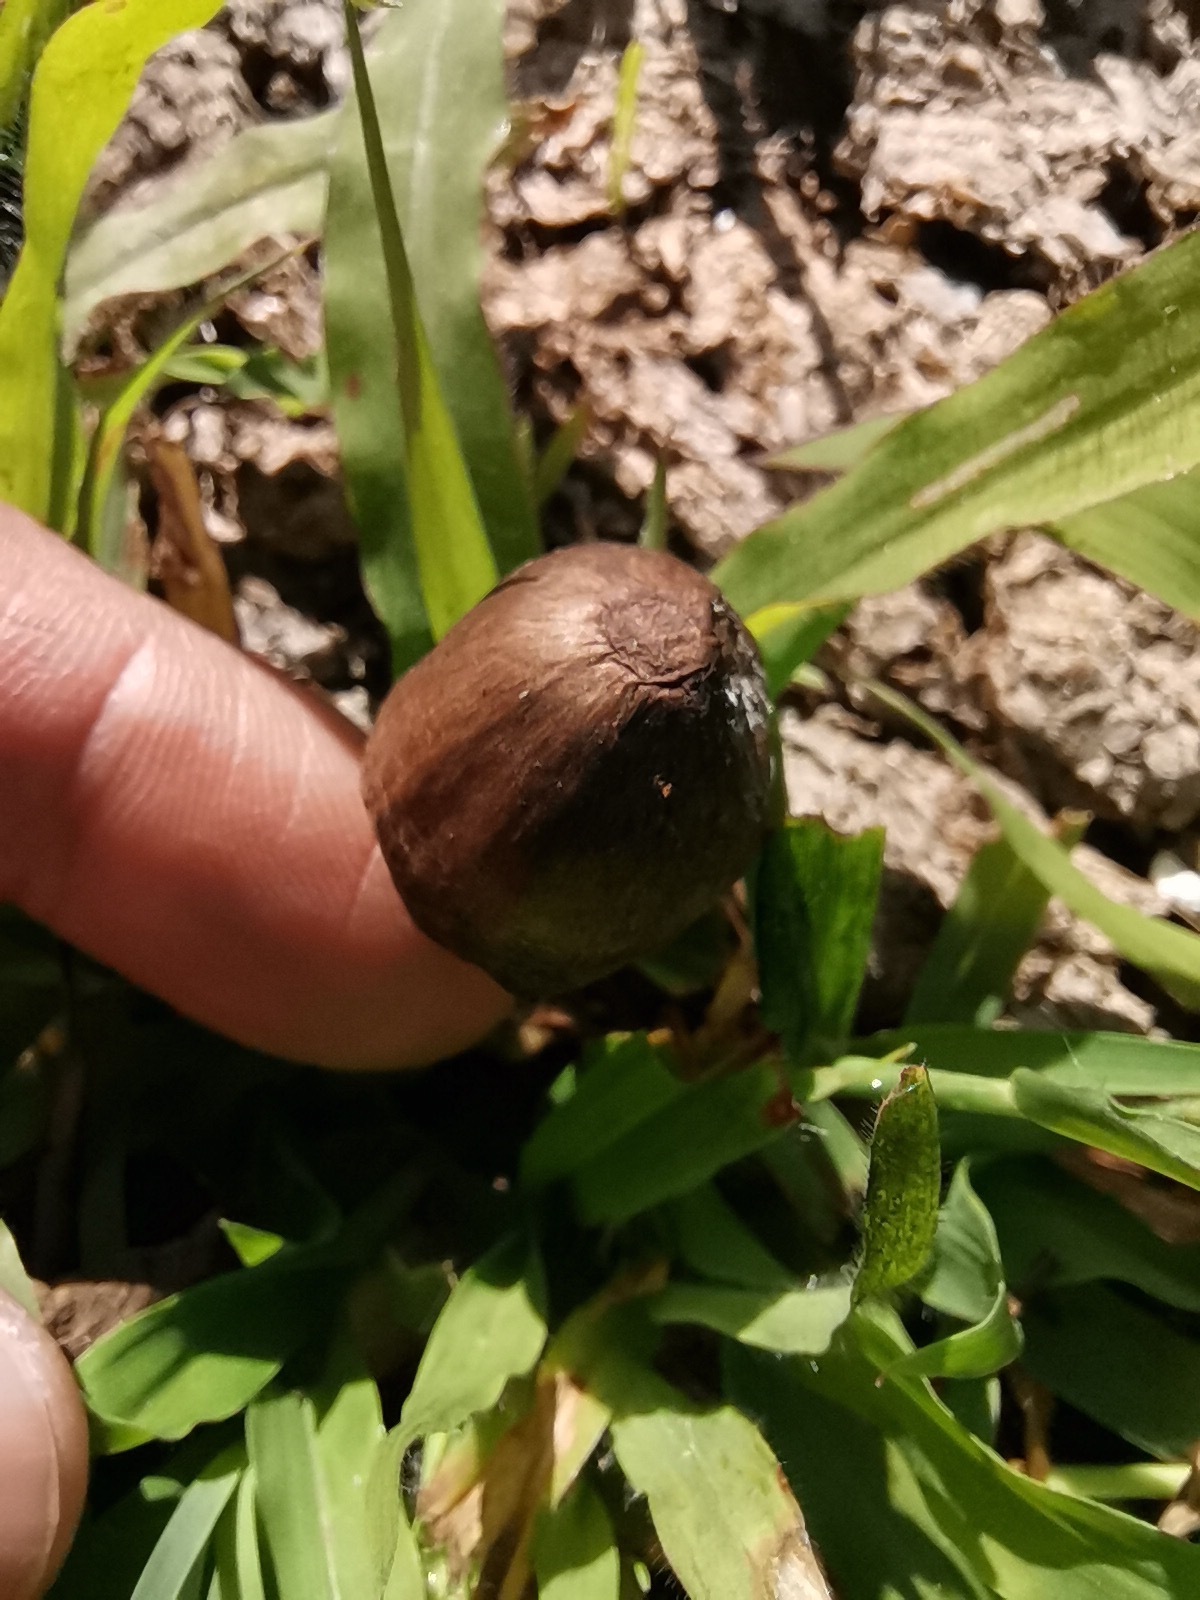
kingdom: Fungi
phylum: Basidiomycota
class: Agaricomycetes
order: Agaricales
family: Bolbitiaceae
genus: Panaeolus
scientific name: Panaeolus papilionaceus
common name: Petticoat mottlegill
